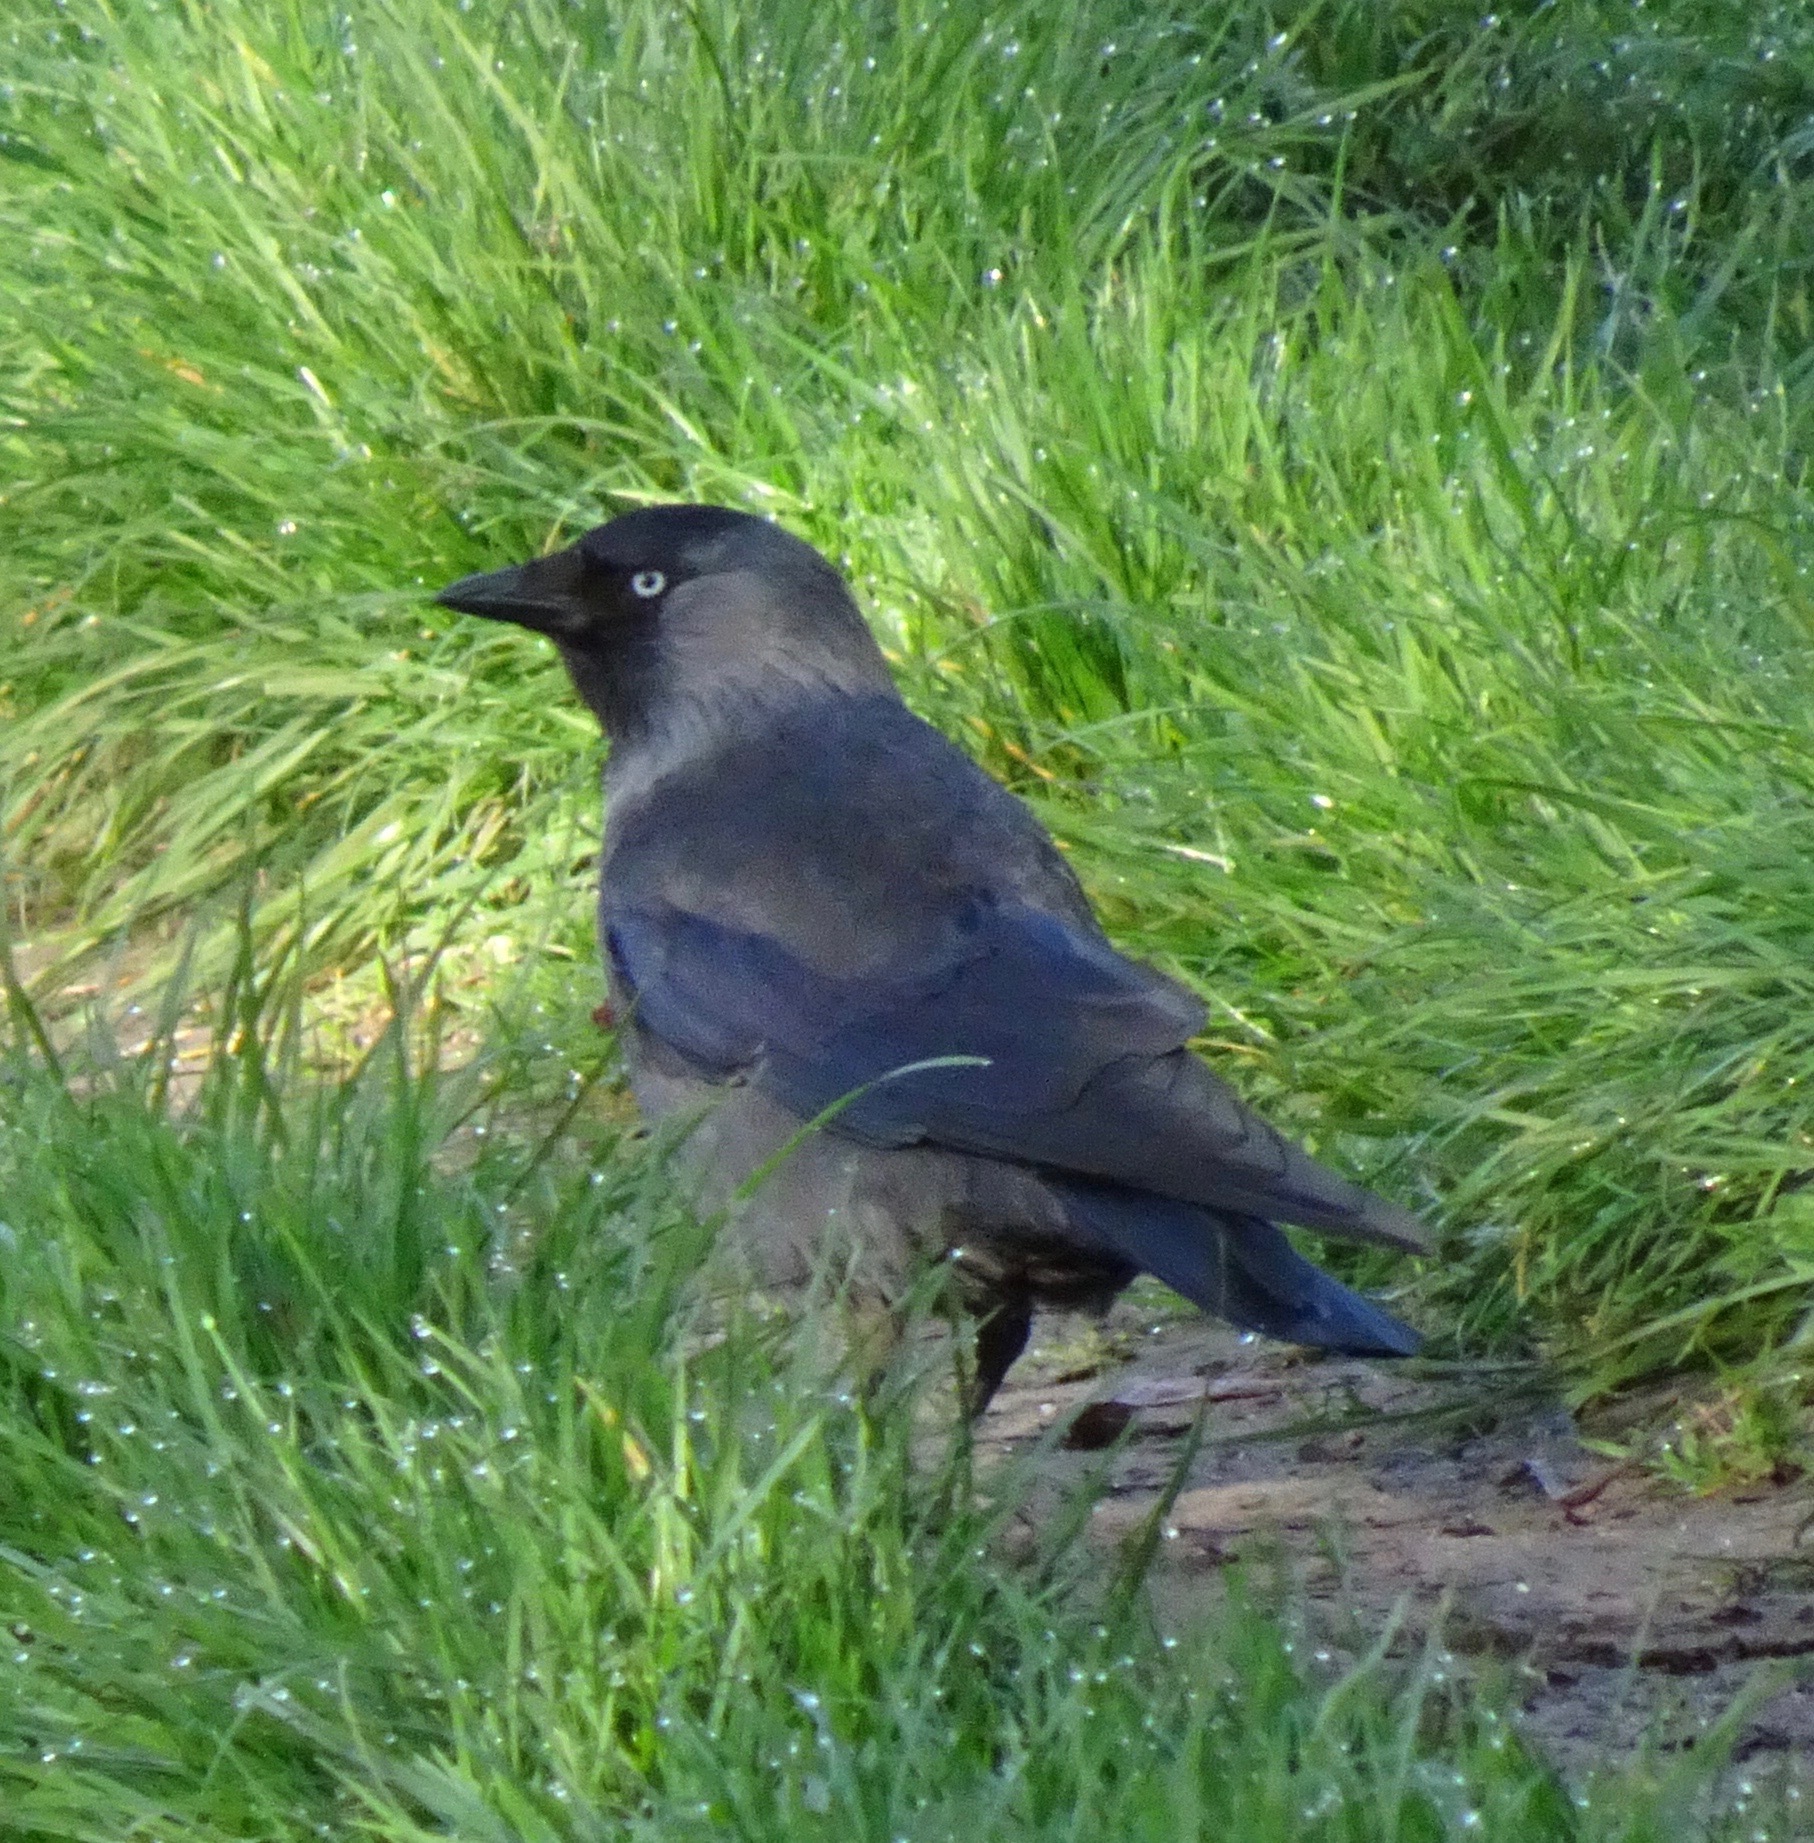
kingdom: Animalia
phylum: Chordata
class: Aves
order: Passeriformes
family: Corvidae
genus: Coloeus
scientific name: Coloeus monedula
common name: Western jackdaw
